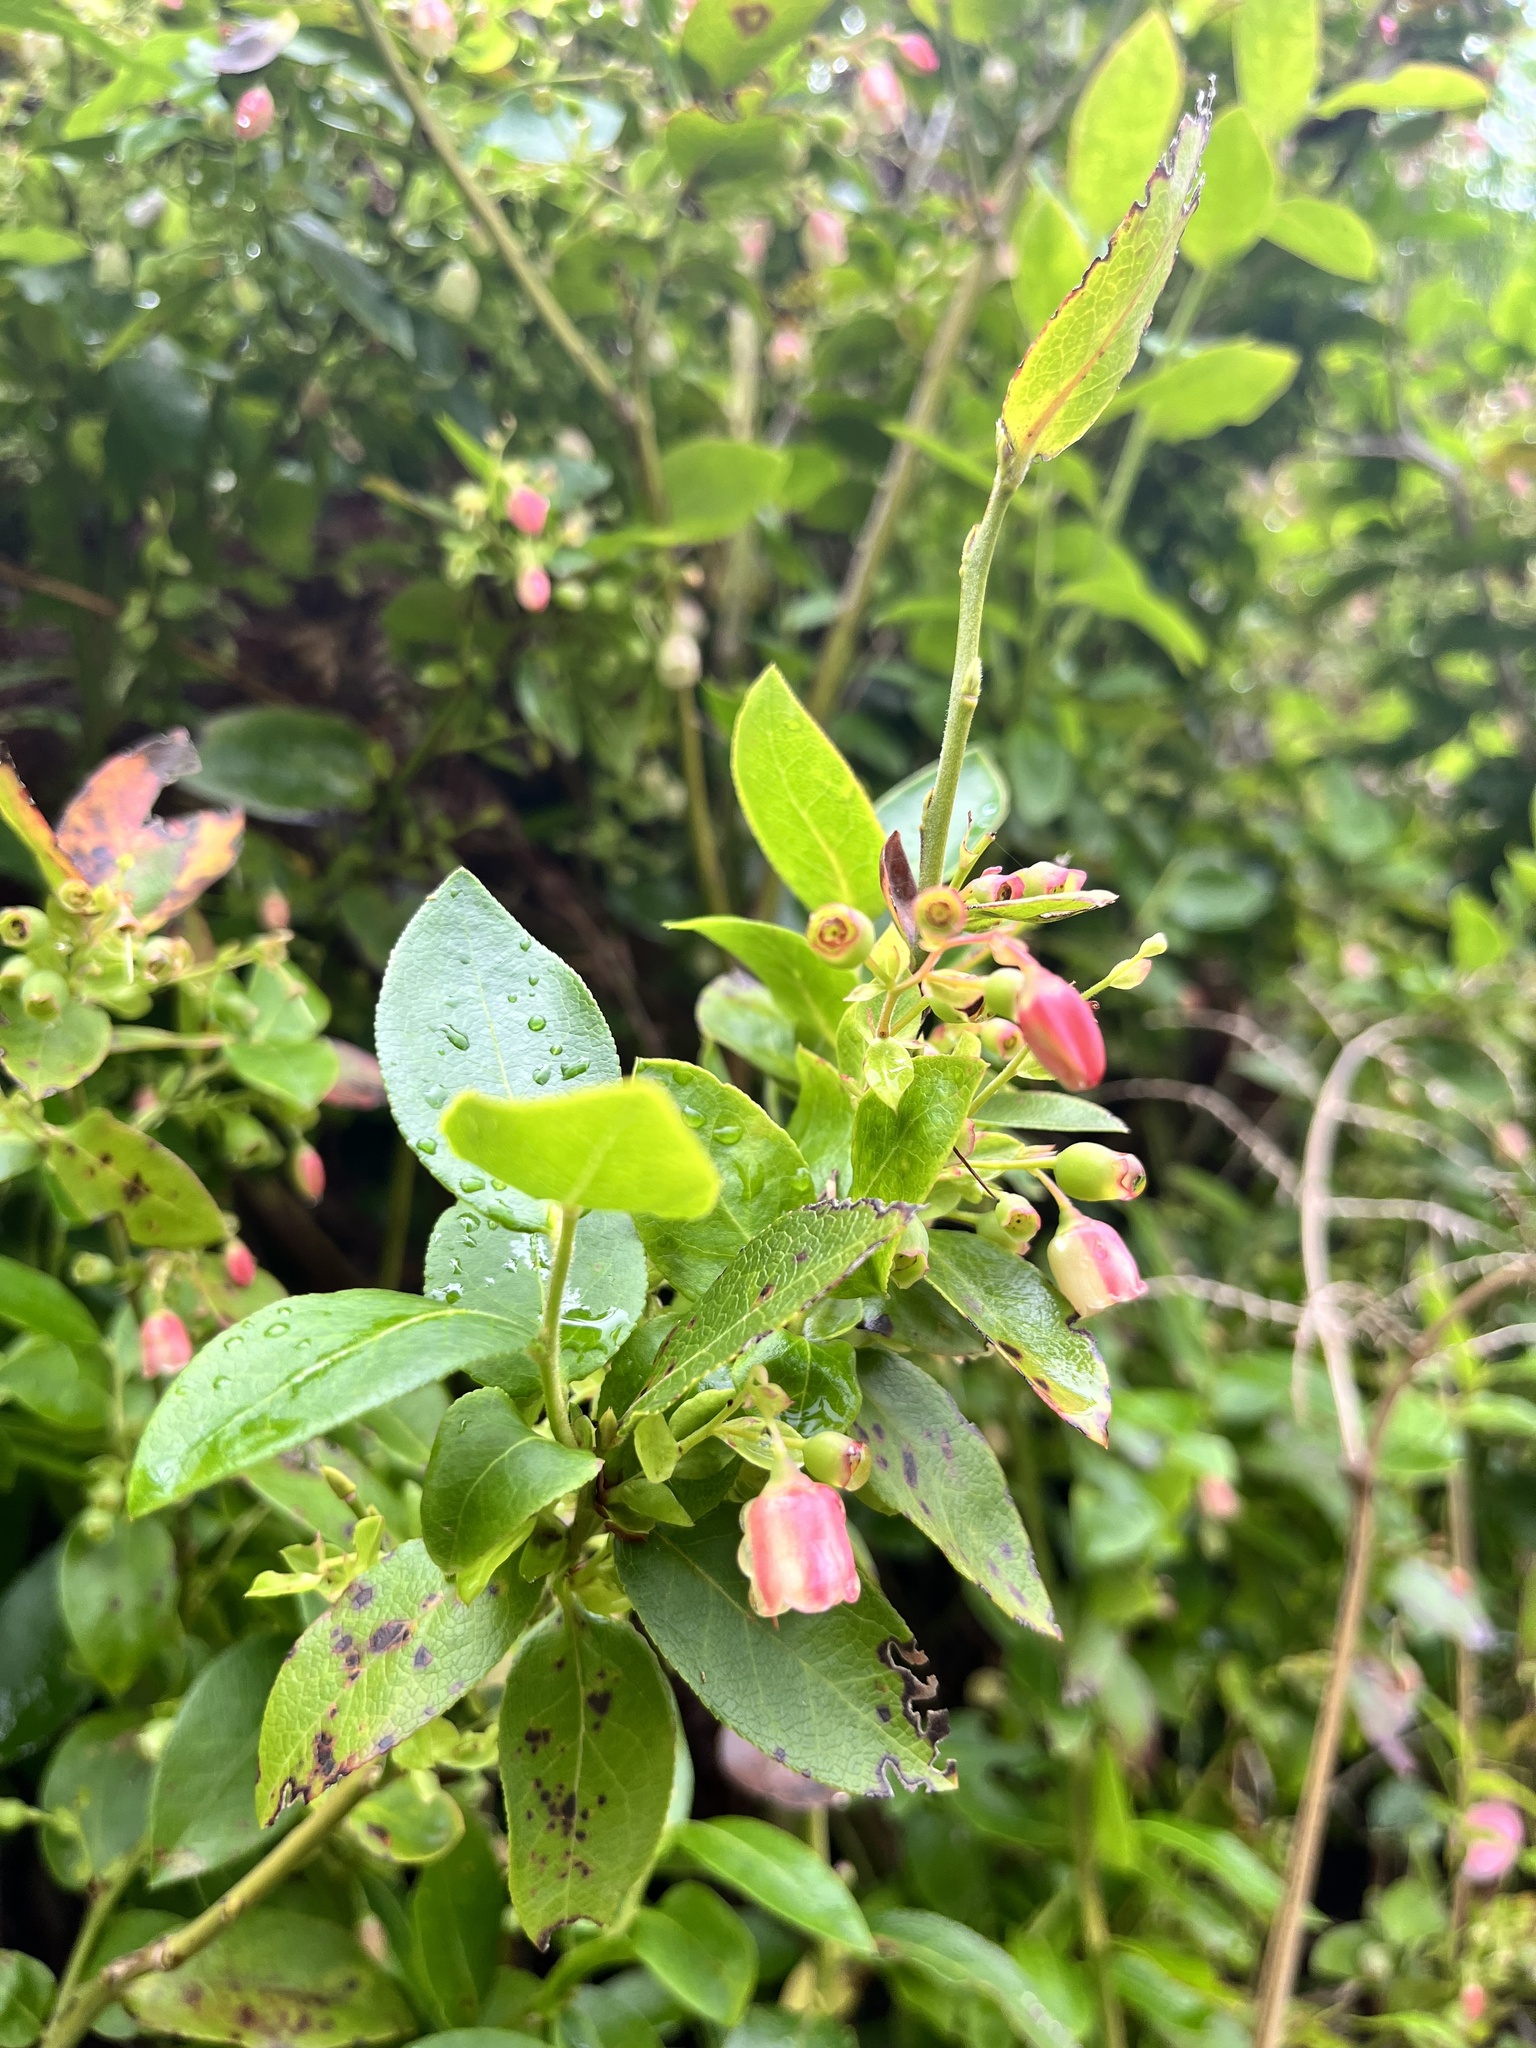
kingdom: Plantae
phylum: Tracheophyta
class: Magnoliopsida
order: Ericales
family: Ericaceae
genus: Vaccinium
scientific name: Vaccinium padifolium
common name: Madeiran blueberry
